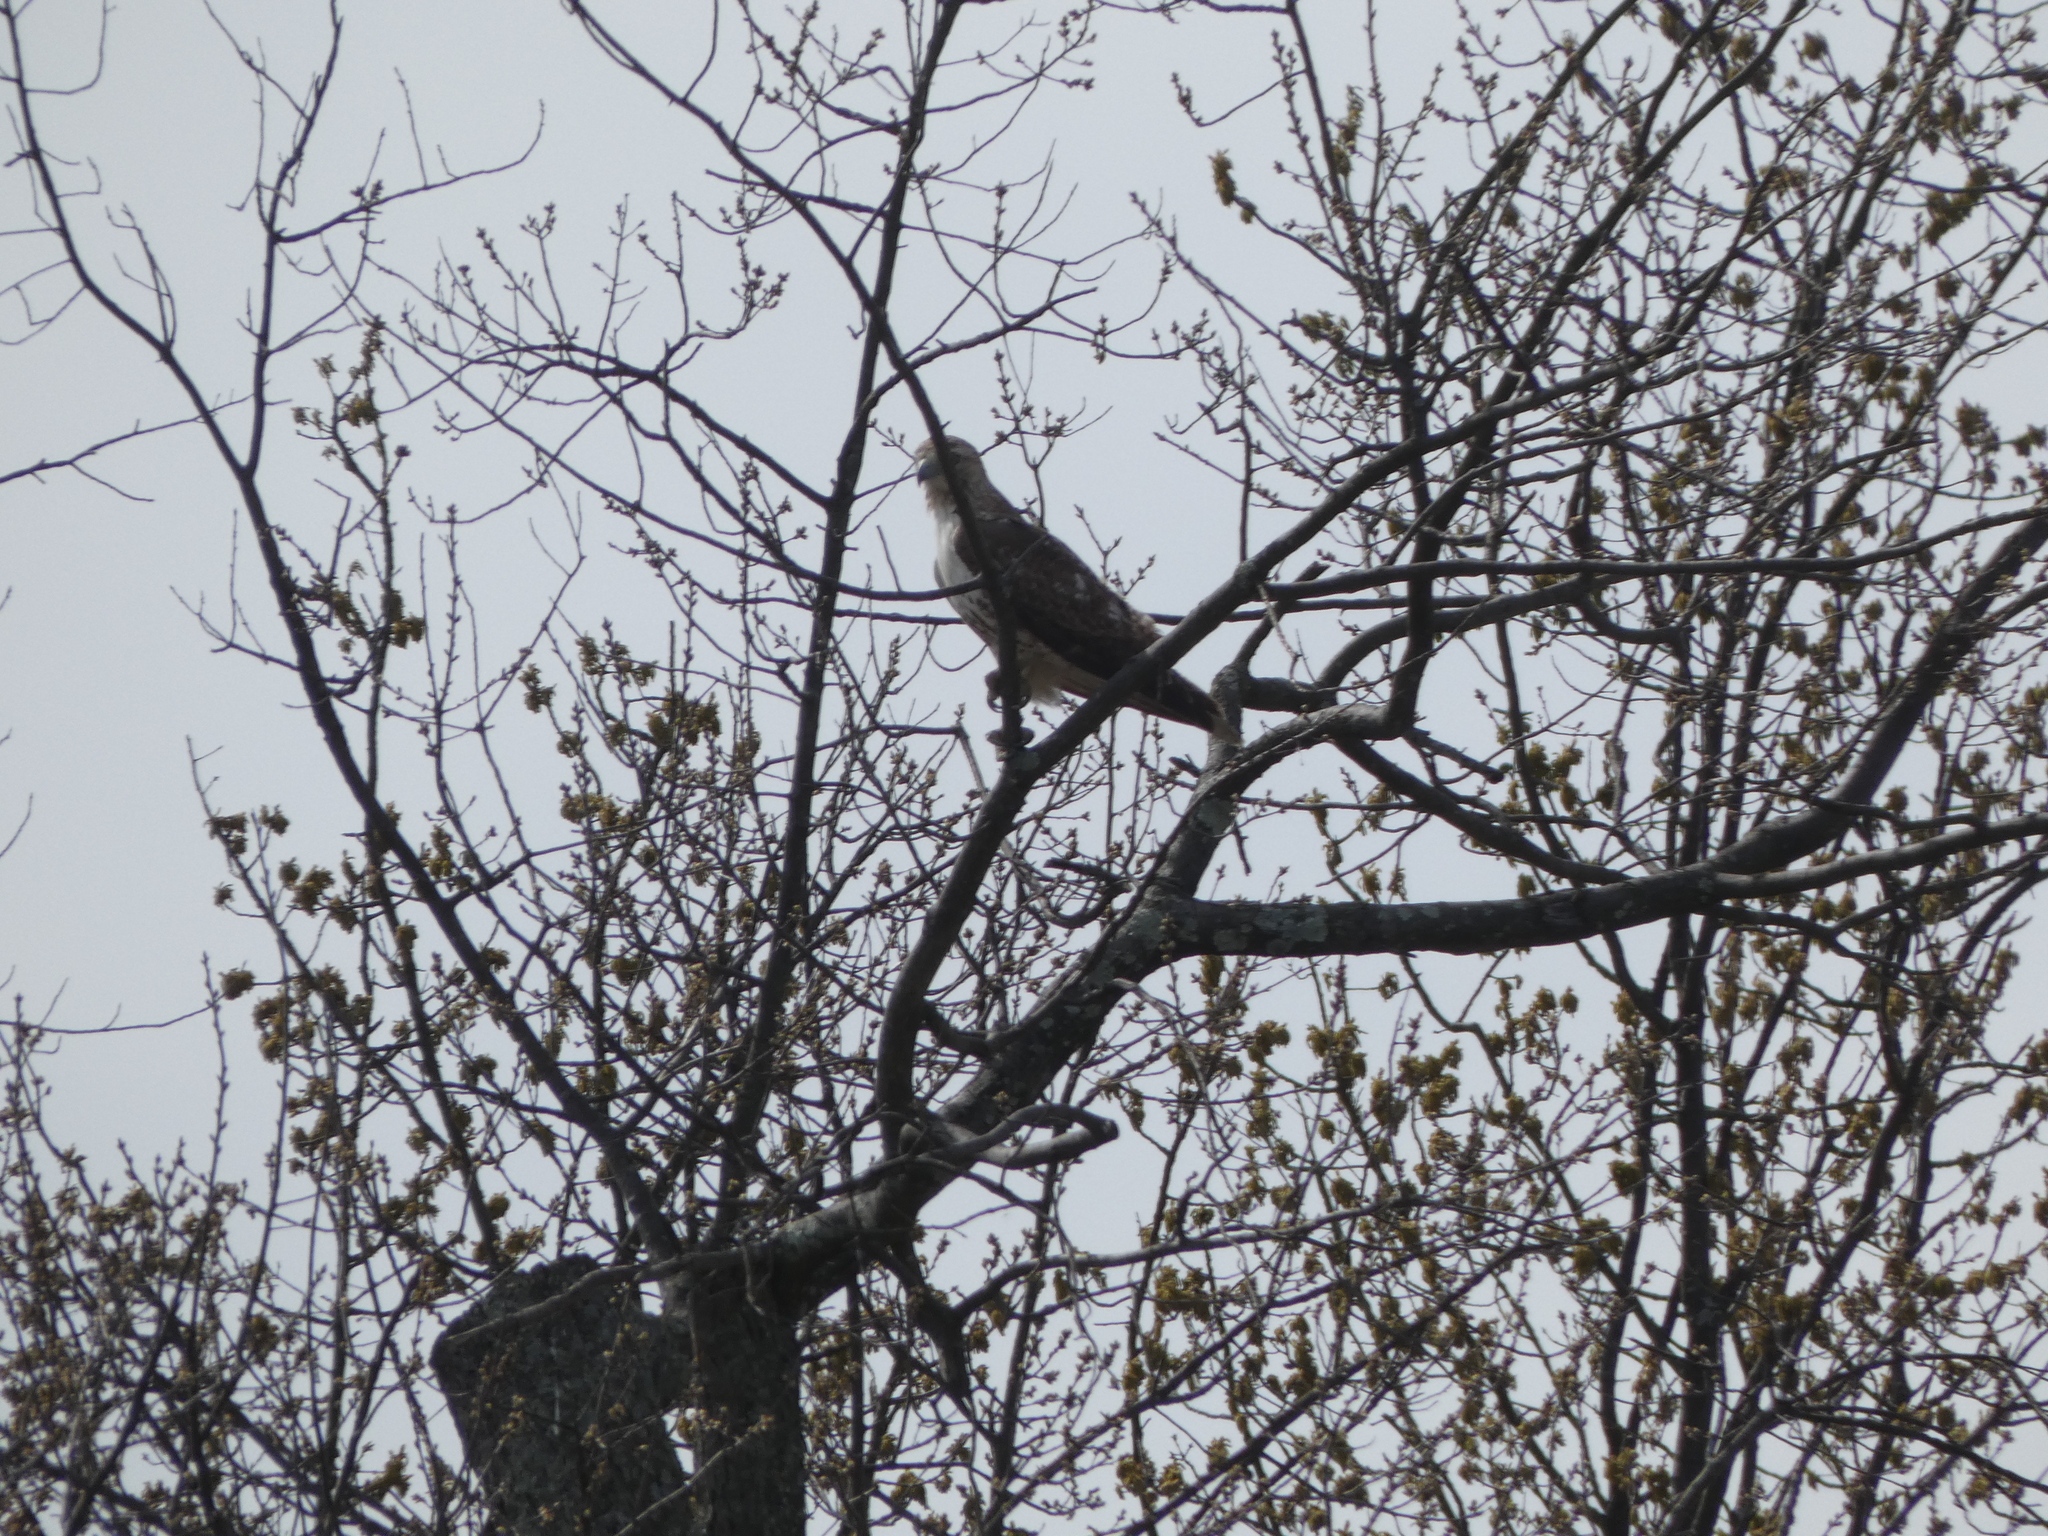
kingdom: Animalia
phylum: Chordata
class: Aves
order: Accipitriformes
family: Accipitridae
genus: Buteo
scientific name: Buteo jamaicensis
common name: Red-tailed hawk
